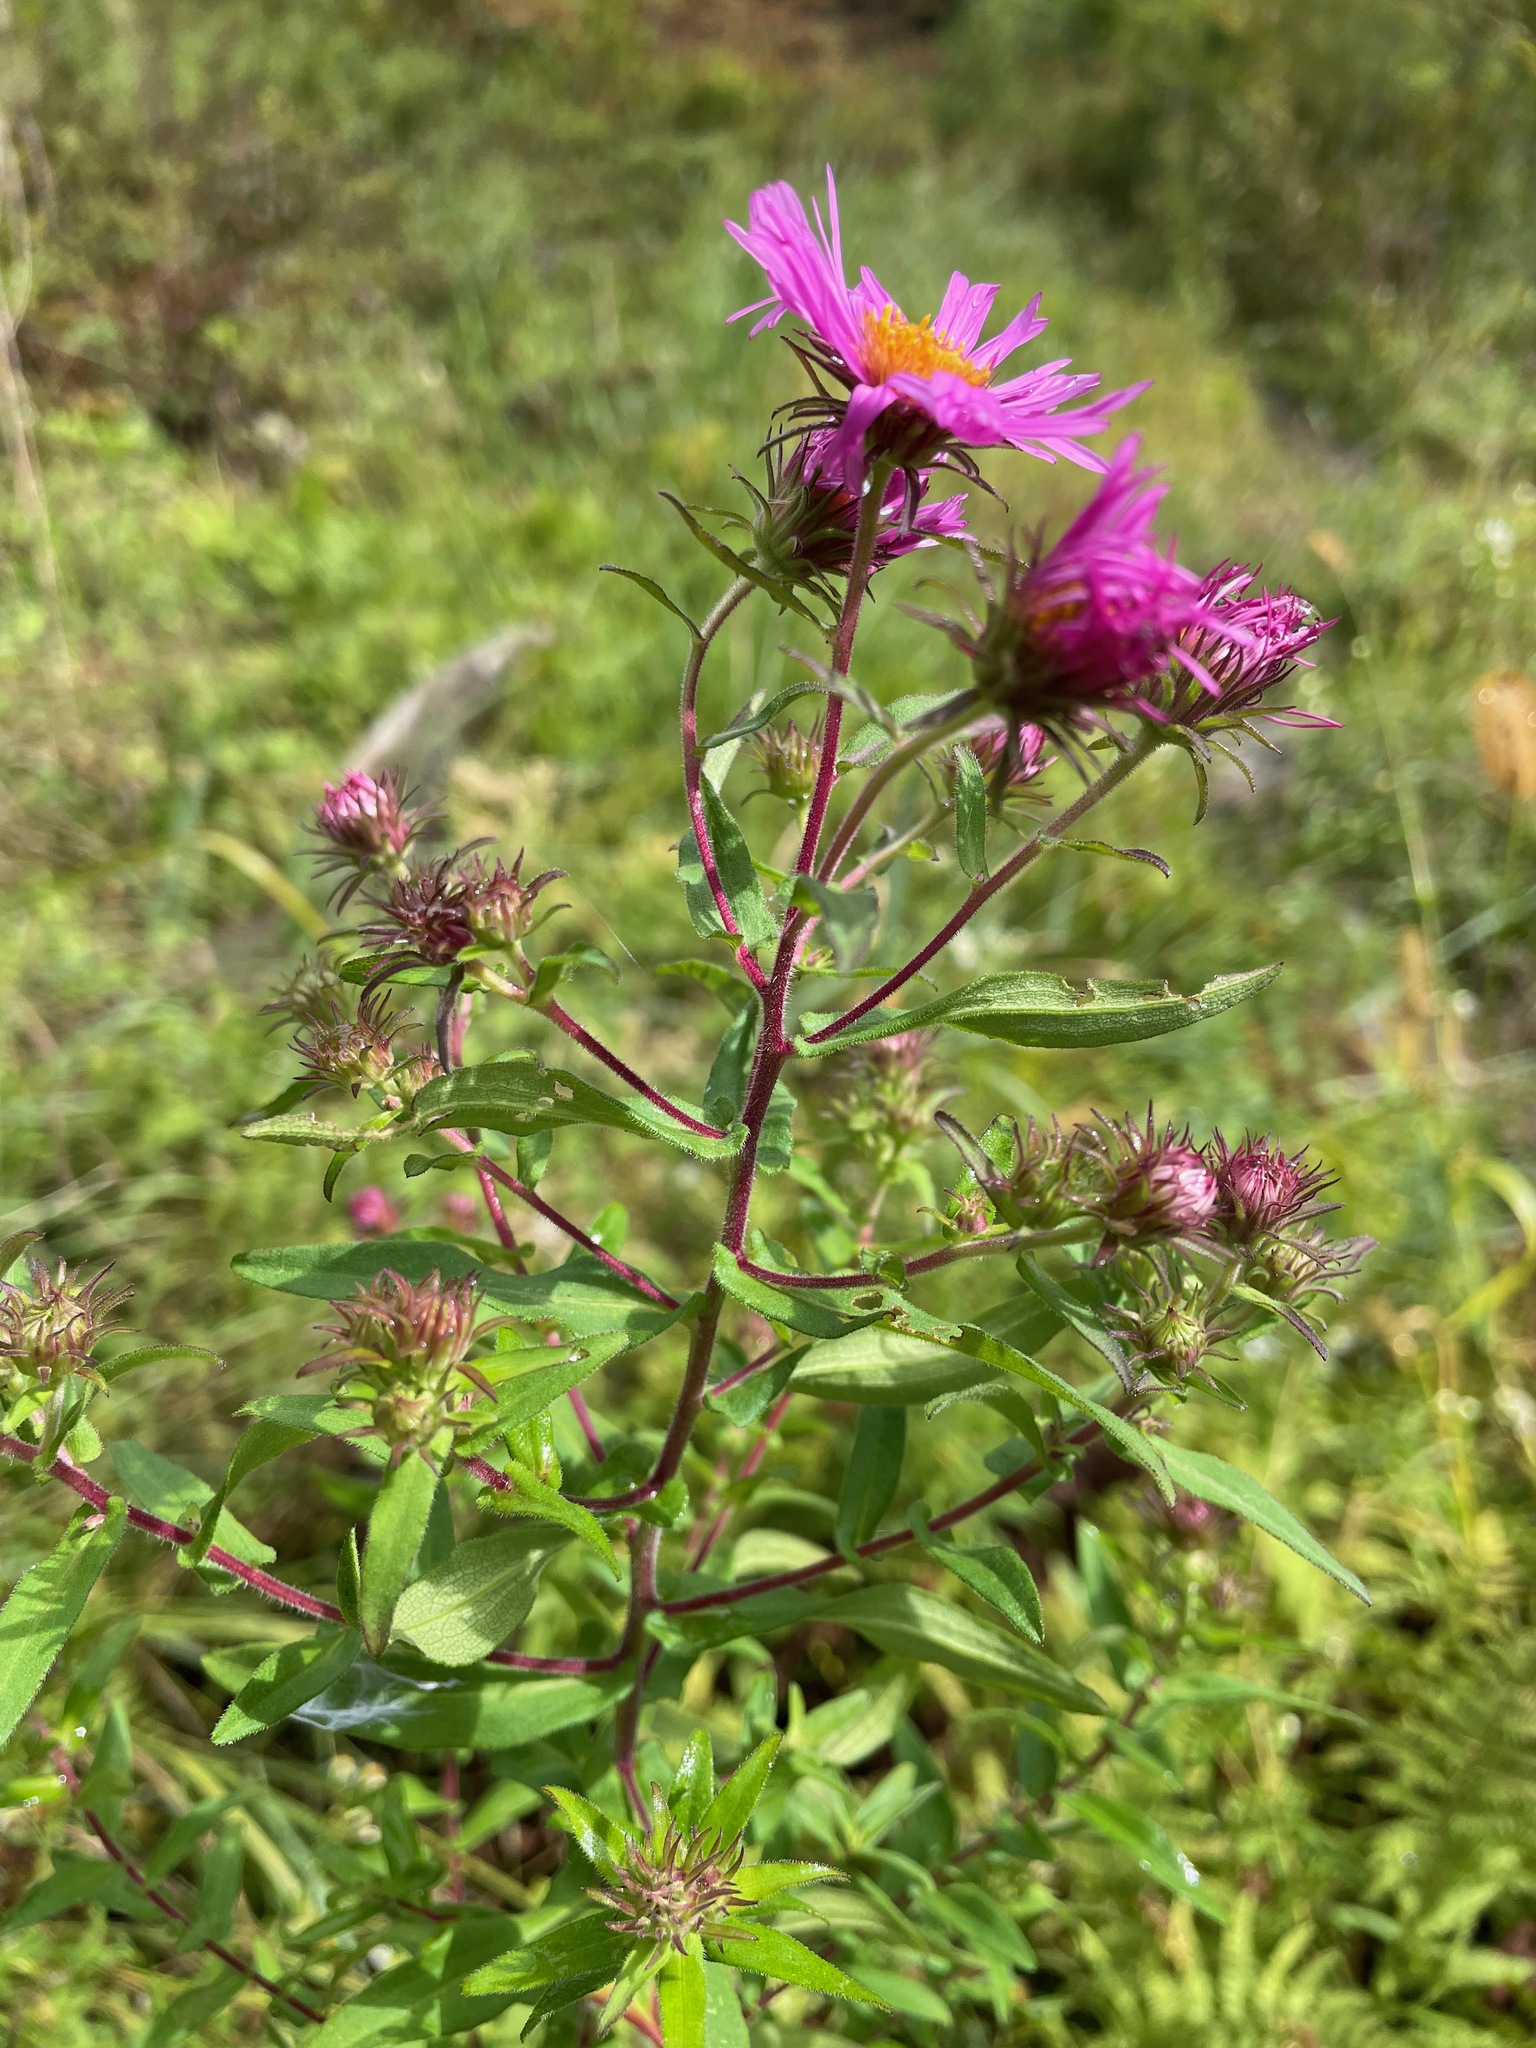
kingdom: Plantae
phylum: Tracheophyta
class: Magnoliopsida
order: Asterales
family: Asteraceae
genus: Symphyotrichum
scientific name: Symphyotrichum novae-angliae
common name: Michaelmas daisy
